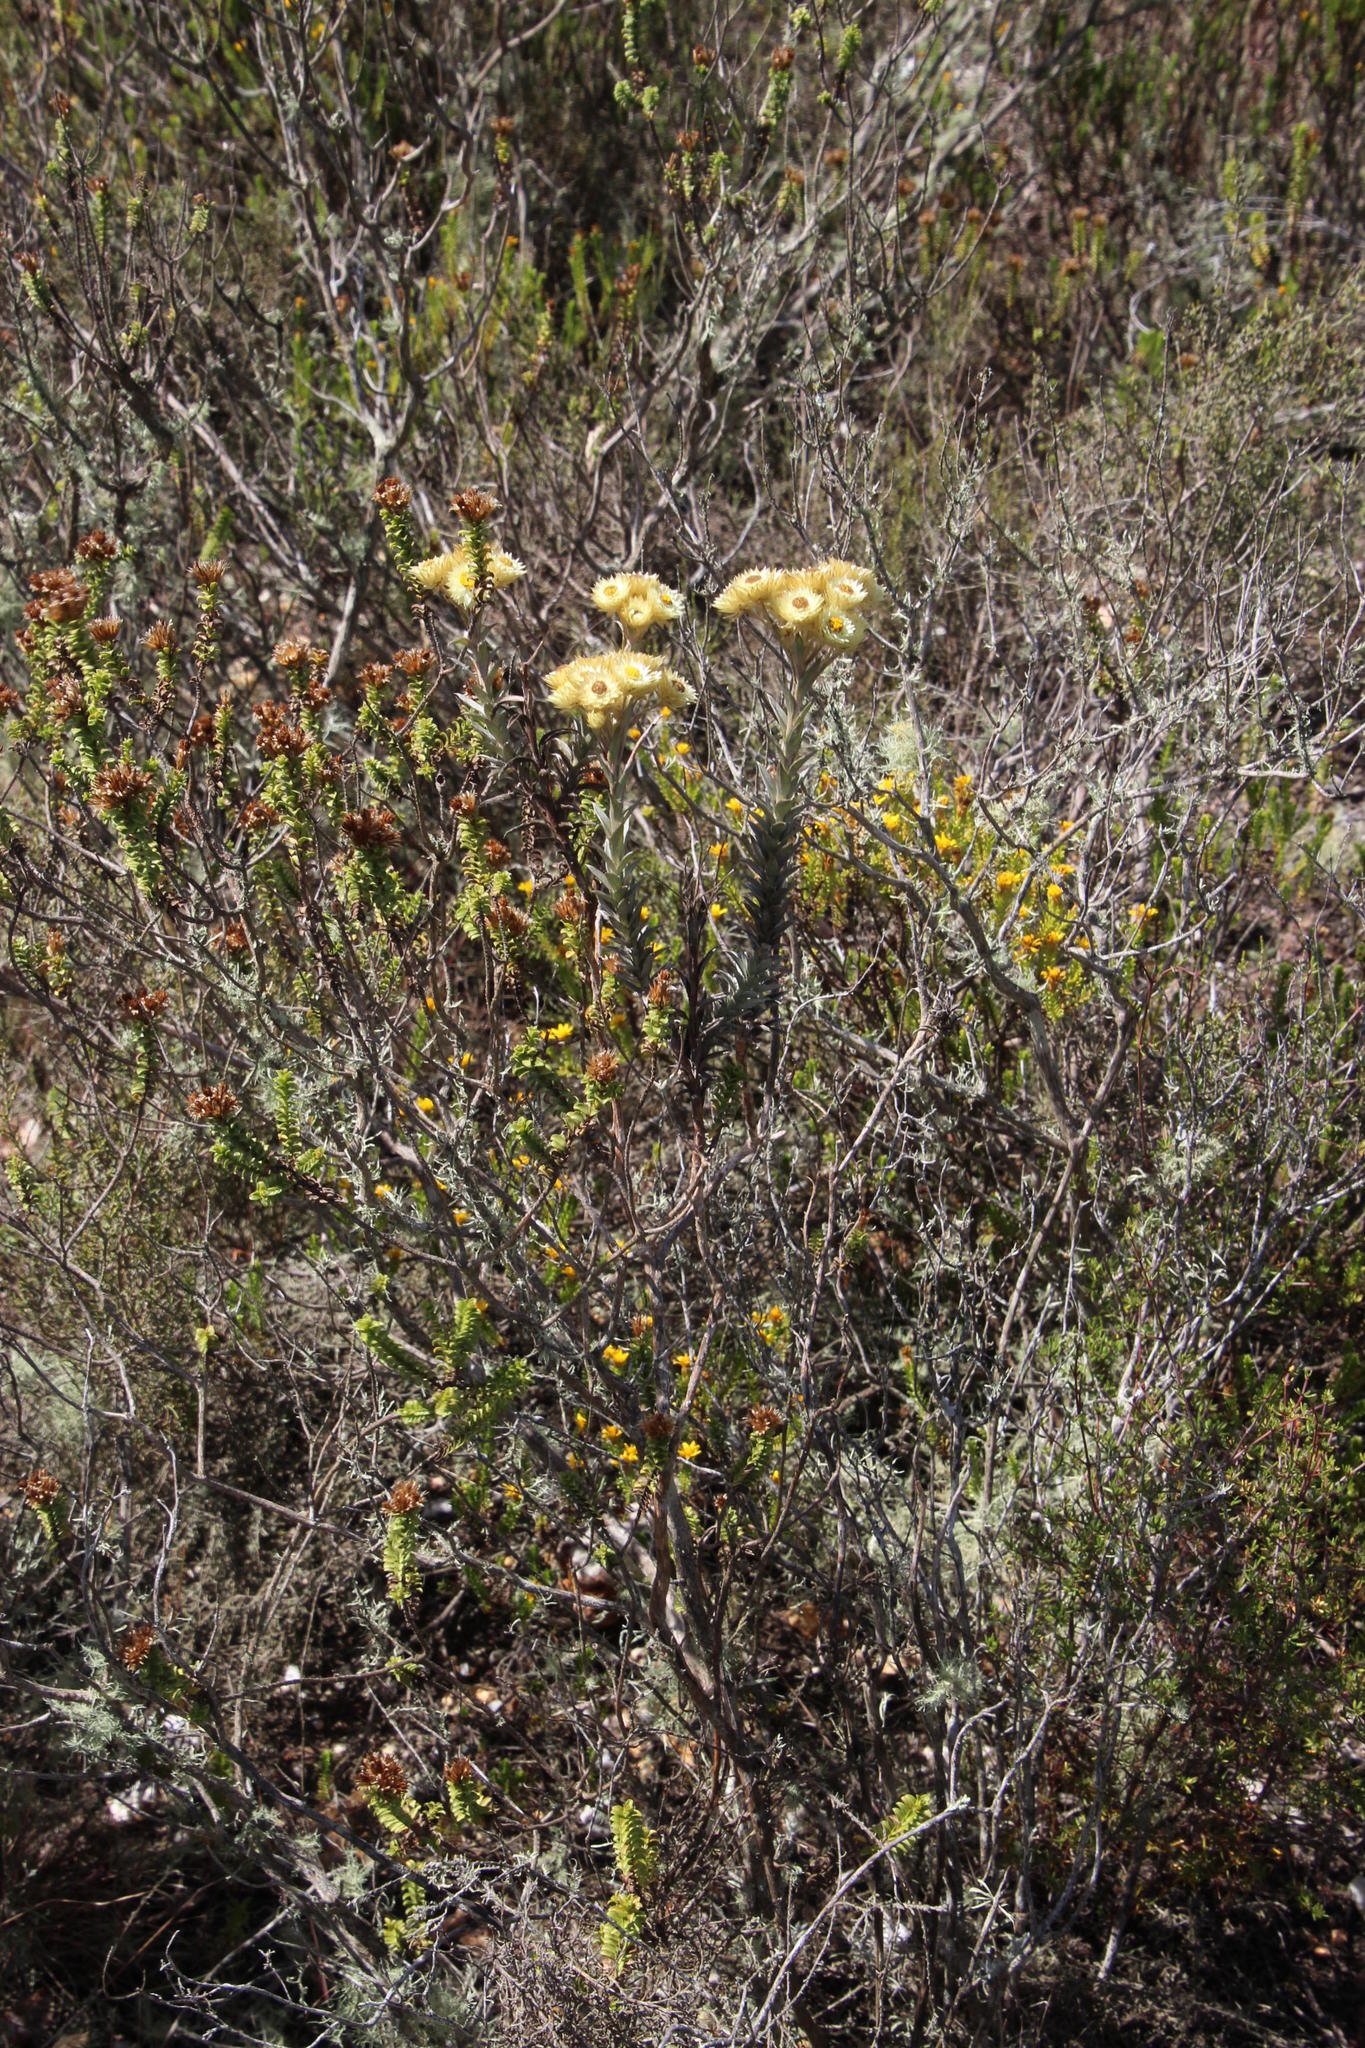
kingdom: Plantae
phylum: Tracheophyta
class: Magnoliopsida
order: Asterales
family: Asteraceae
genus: Achyranthemum
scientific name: Achyranthemum mucronatum
